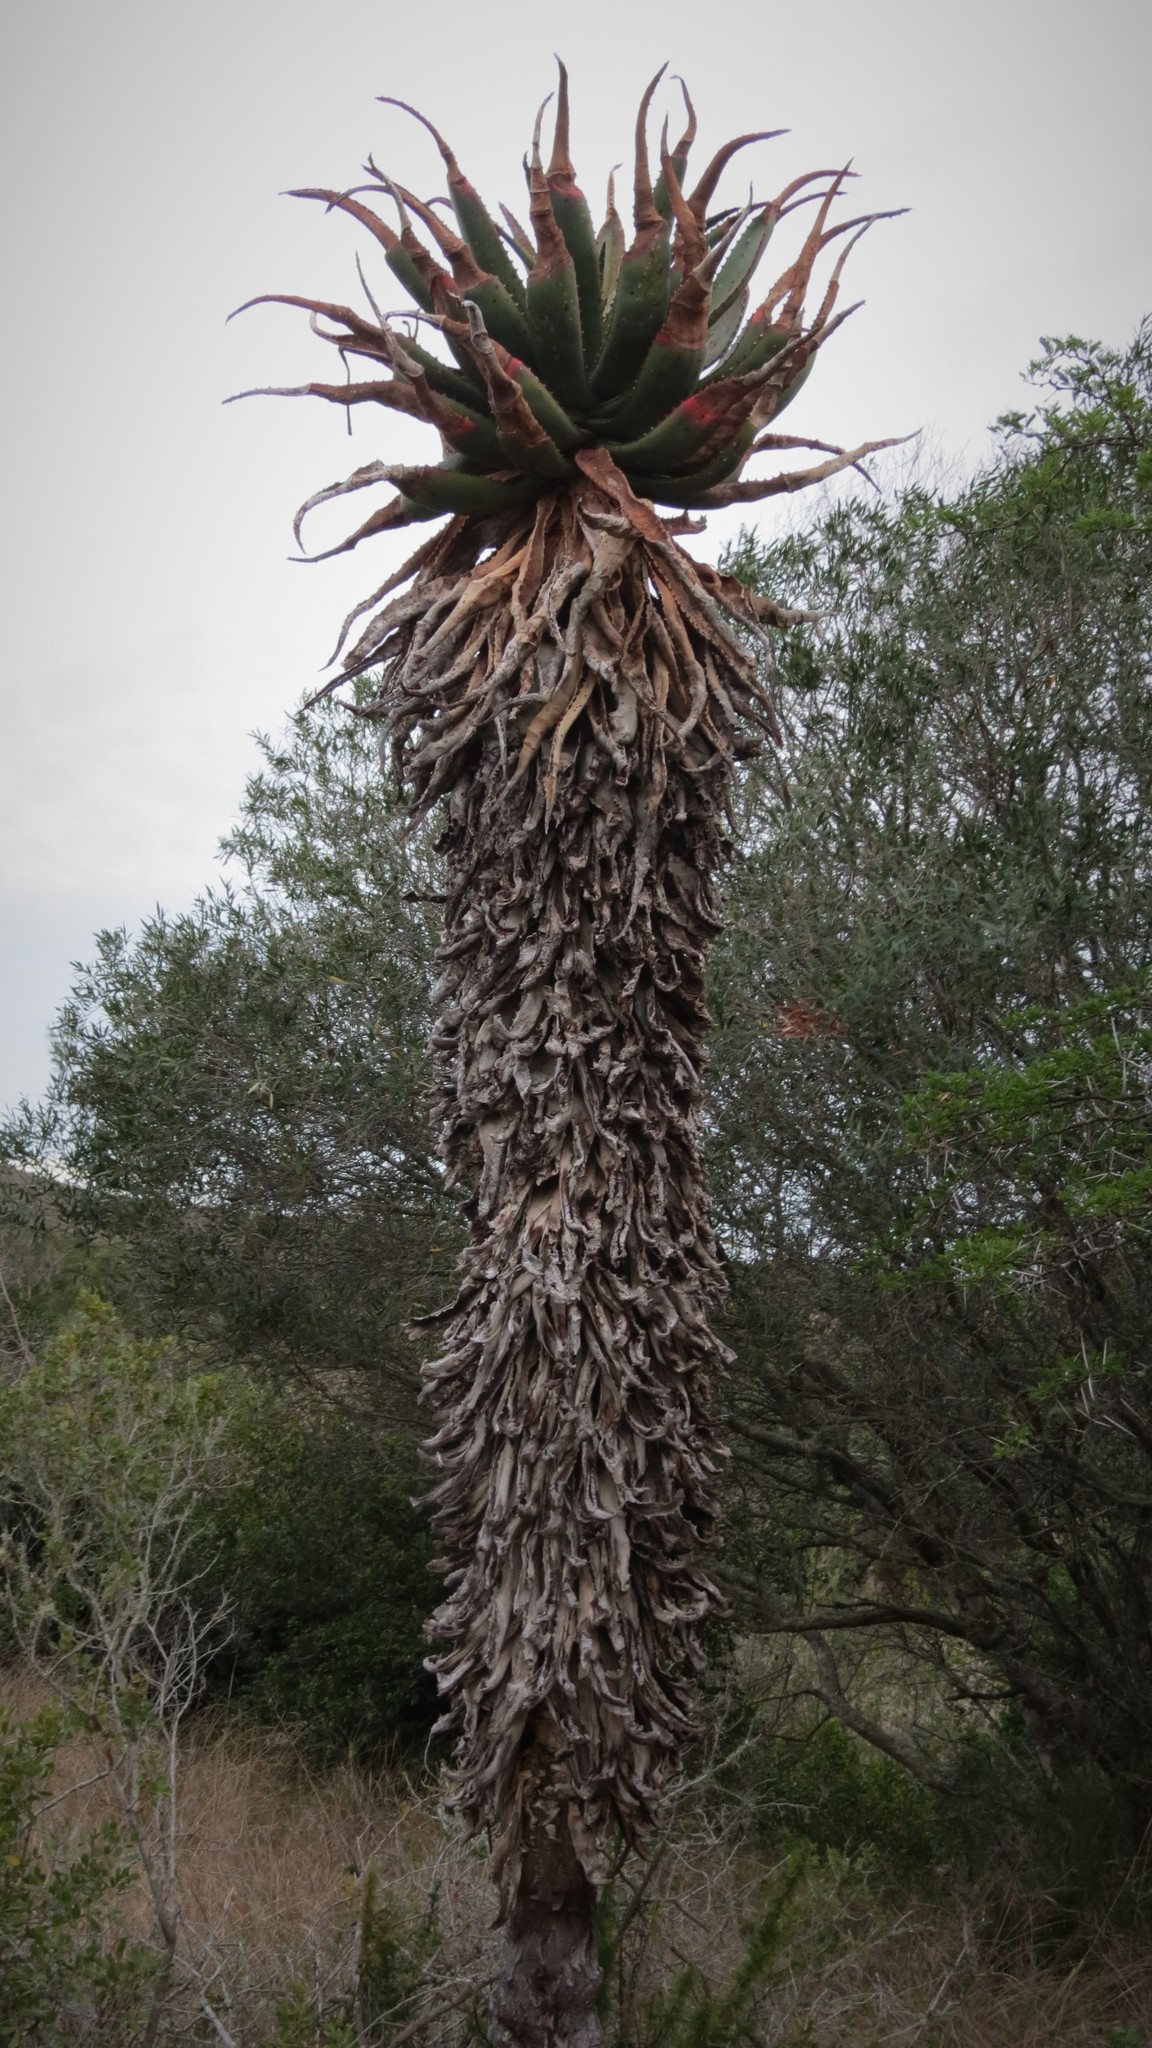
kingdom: Plantae
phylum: Tracheophyta
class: Liliopsida
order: Asparagales
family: Asphodelaceae
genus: Aloe
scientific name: Aloe ferox
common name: Bitter aloe
